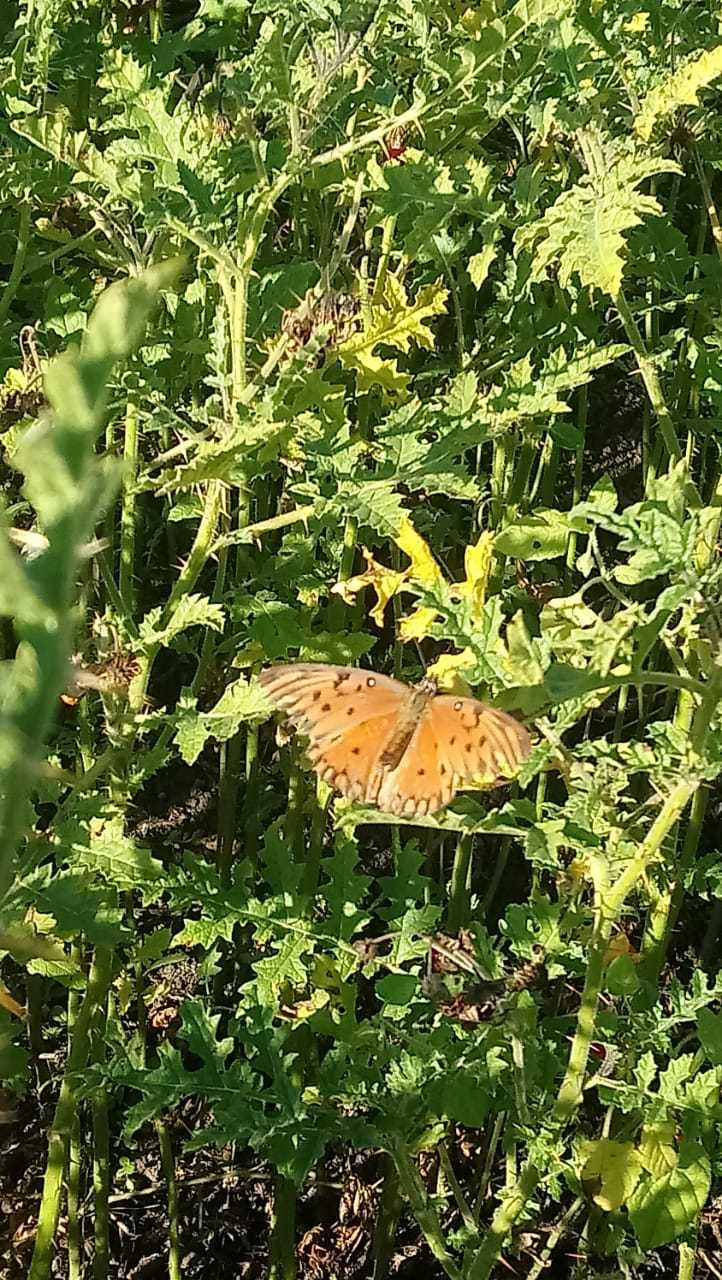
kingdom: Animalia
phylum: Arthropoda
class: Insecta
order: Lepidoptera
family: Nymphalidae
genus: Dione
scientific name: Dione vanillae
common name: Gulf fritillary
